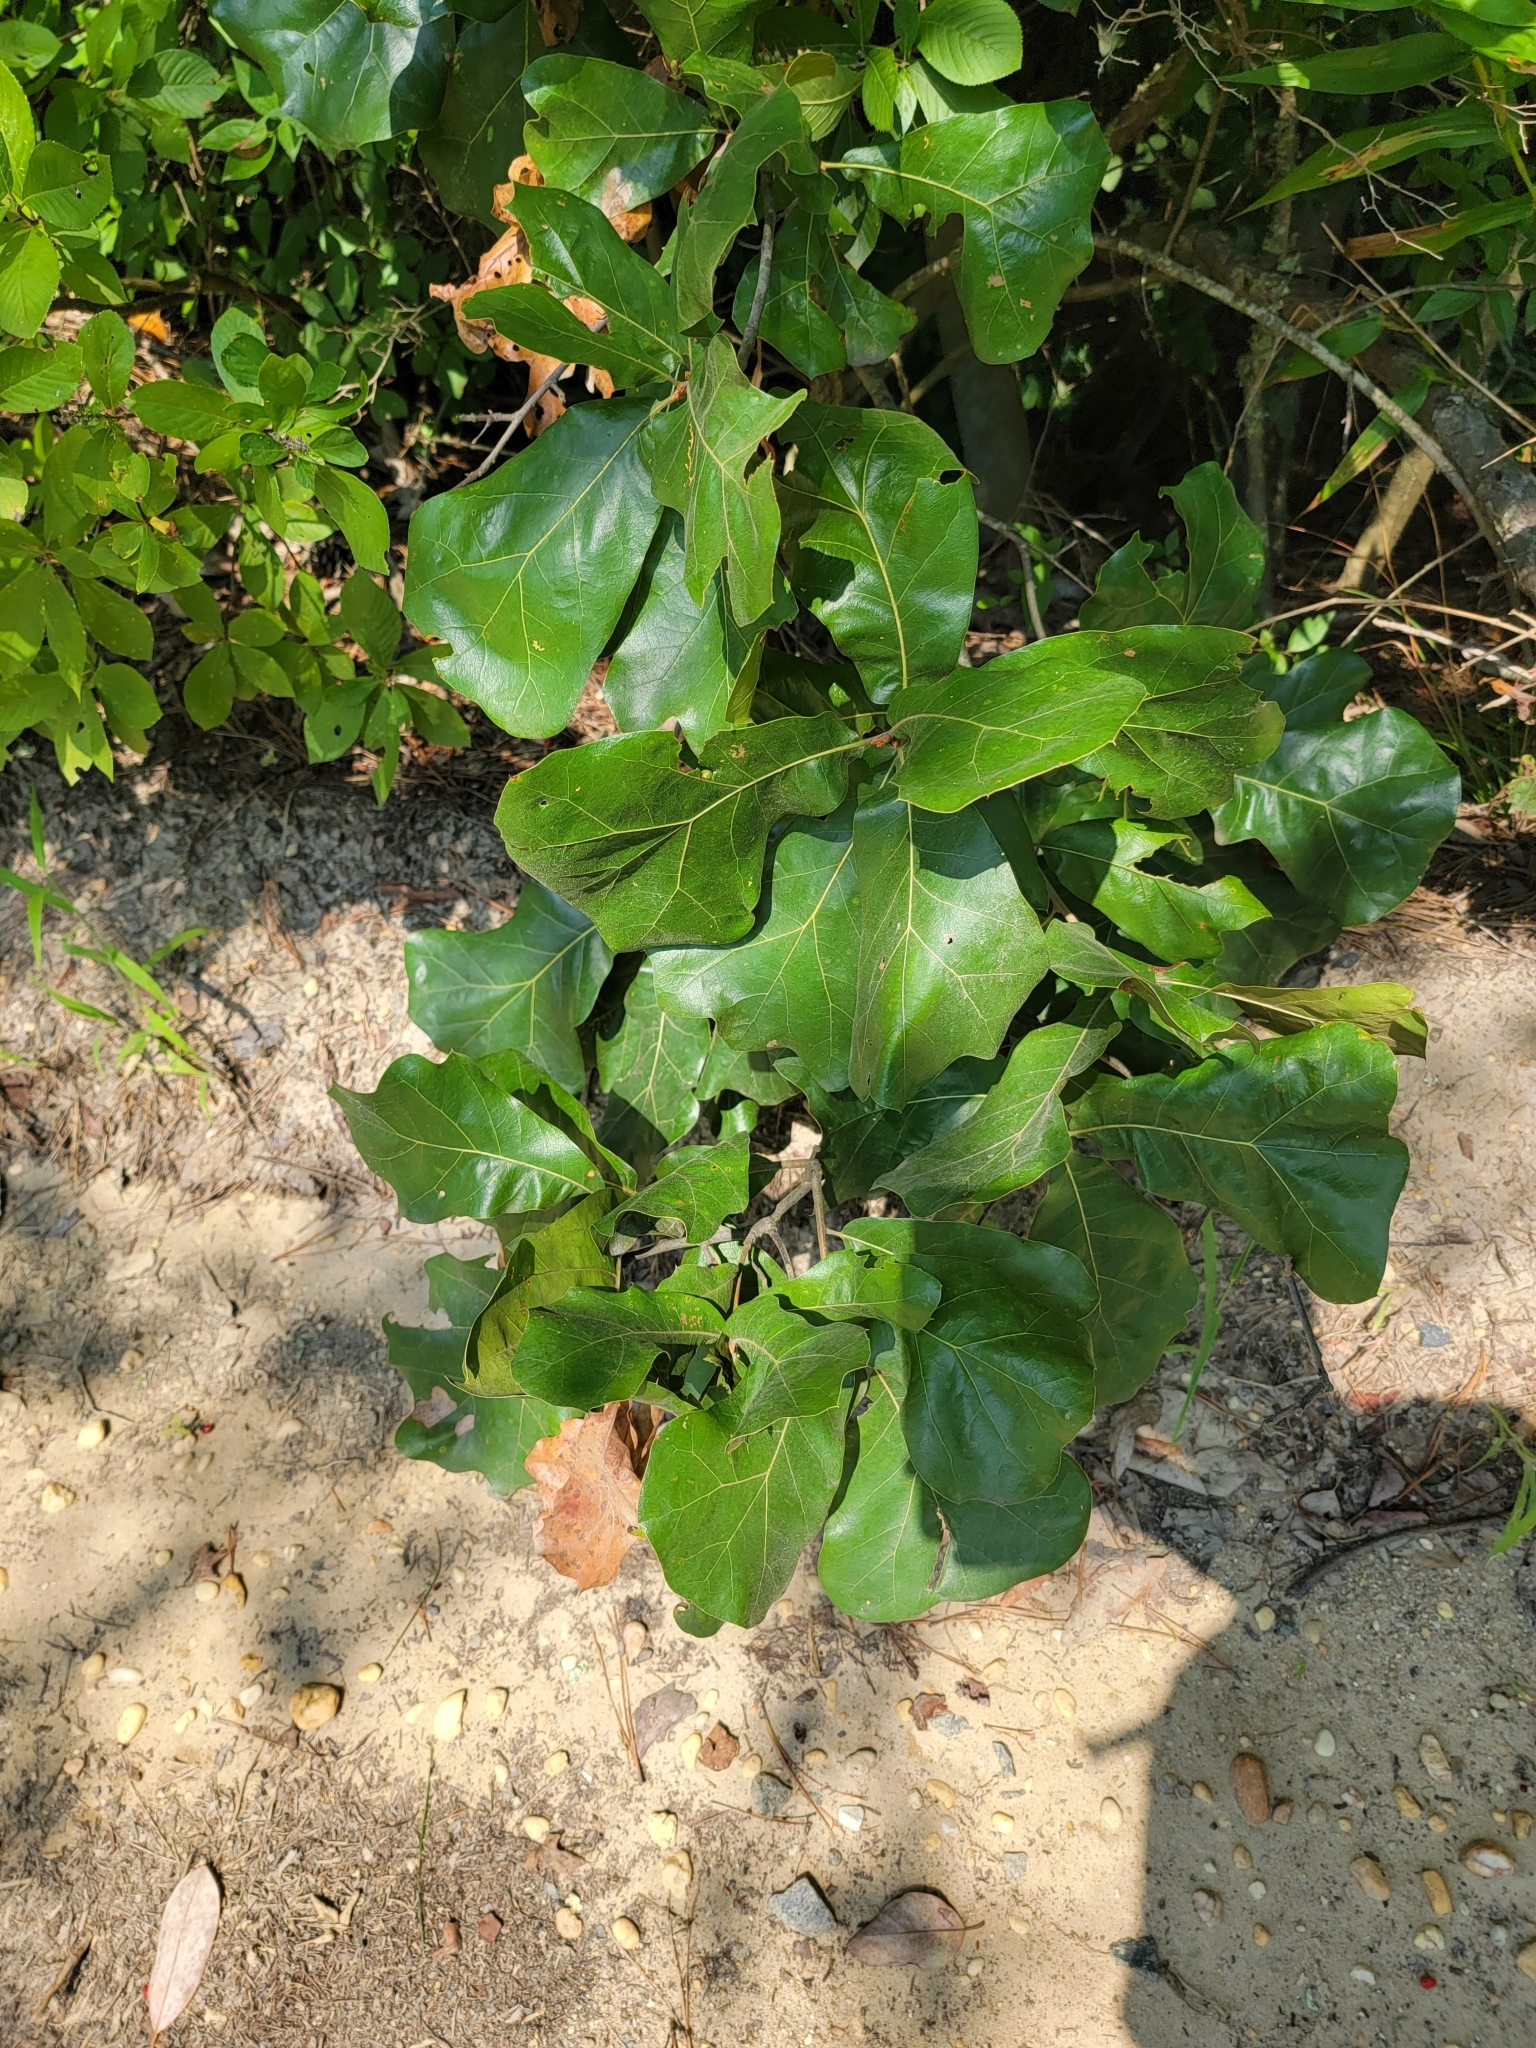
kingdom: Plantae
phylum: Tracheophyta
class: Magnoliopsida
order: Fagales
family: Fagaceae
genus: Quercus
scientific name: Quercus marilandica
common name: Blackjack oak
